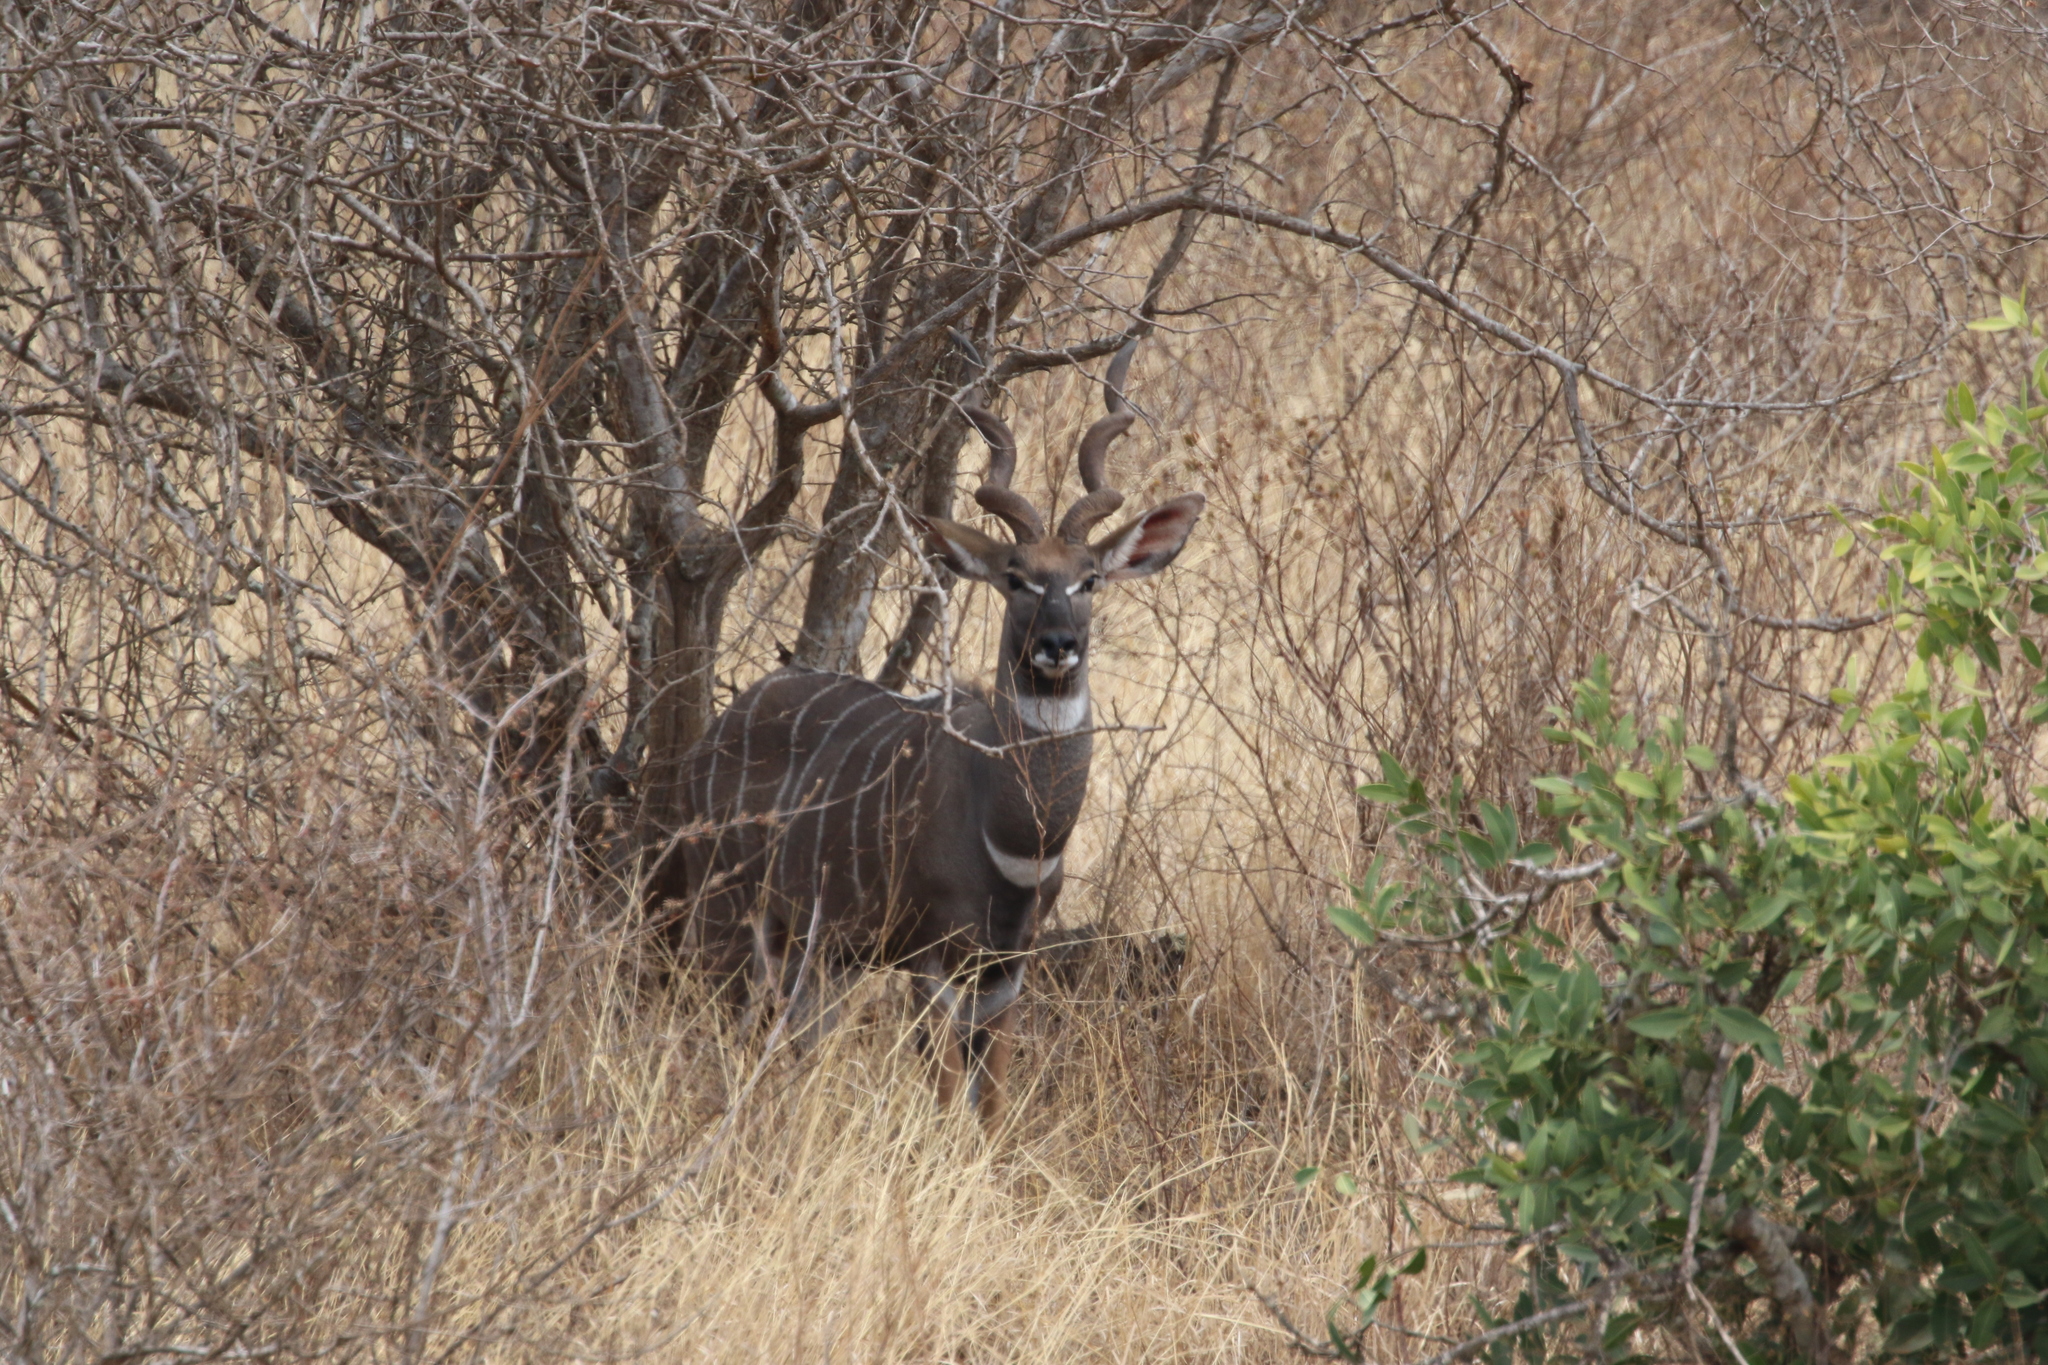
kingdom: Animalia
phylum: Chordata
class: Mammalia
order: Artiodactyla
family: Bovidae
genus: Tragelaphus
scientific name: Tragelaphus imberbis
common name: Lesser kudu
